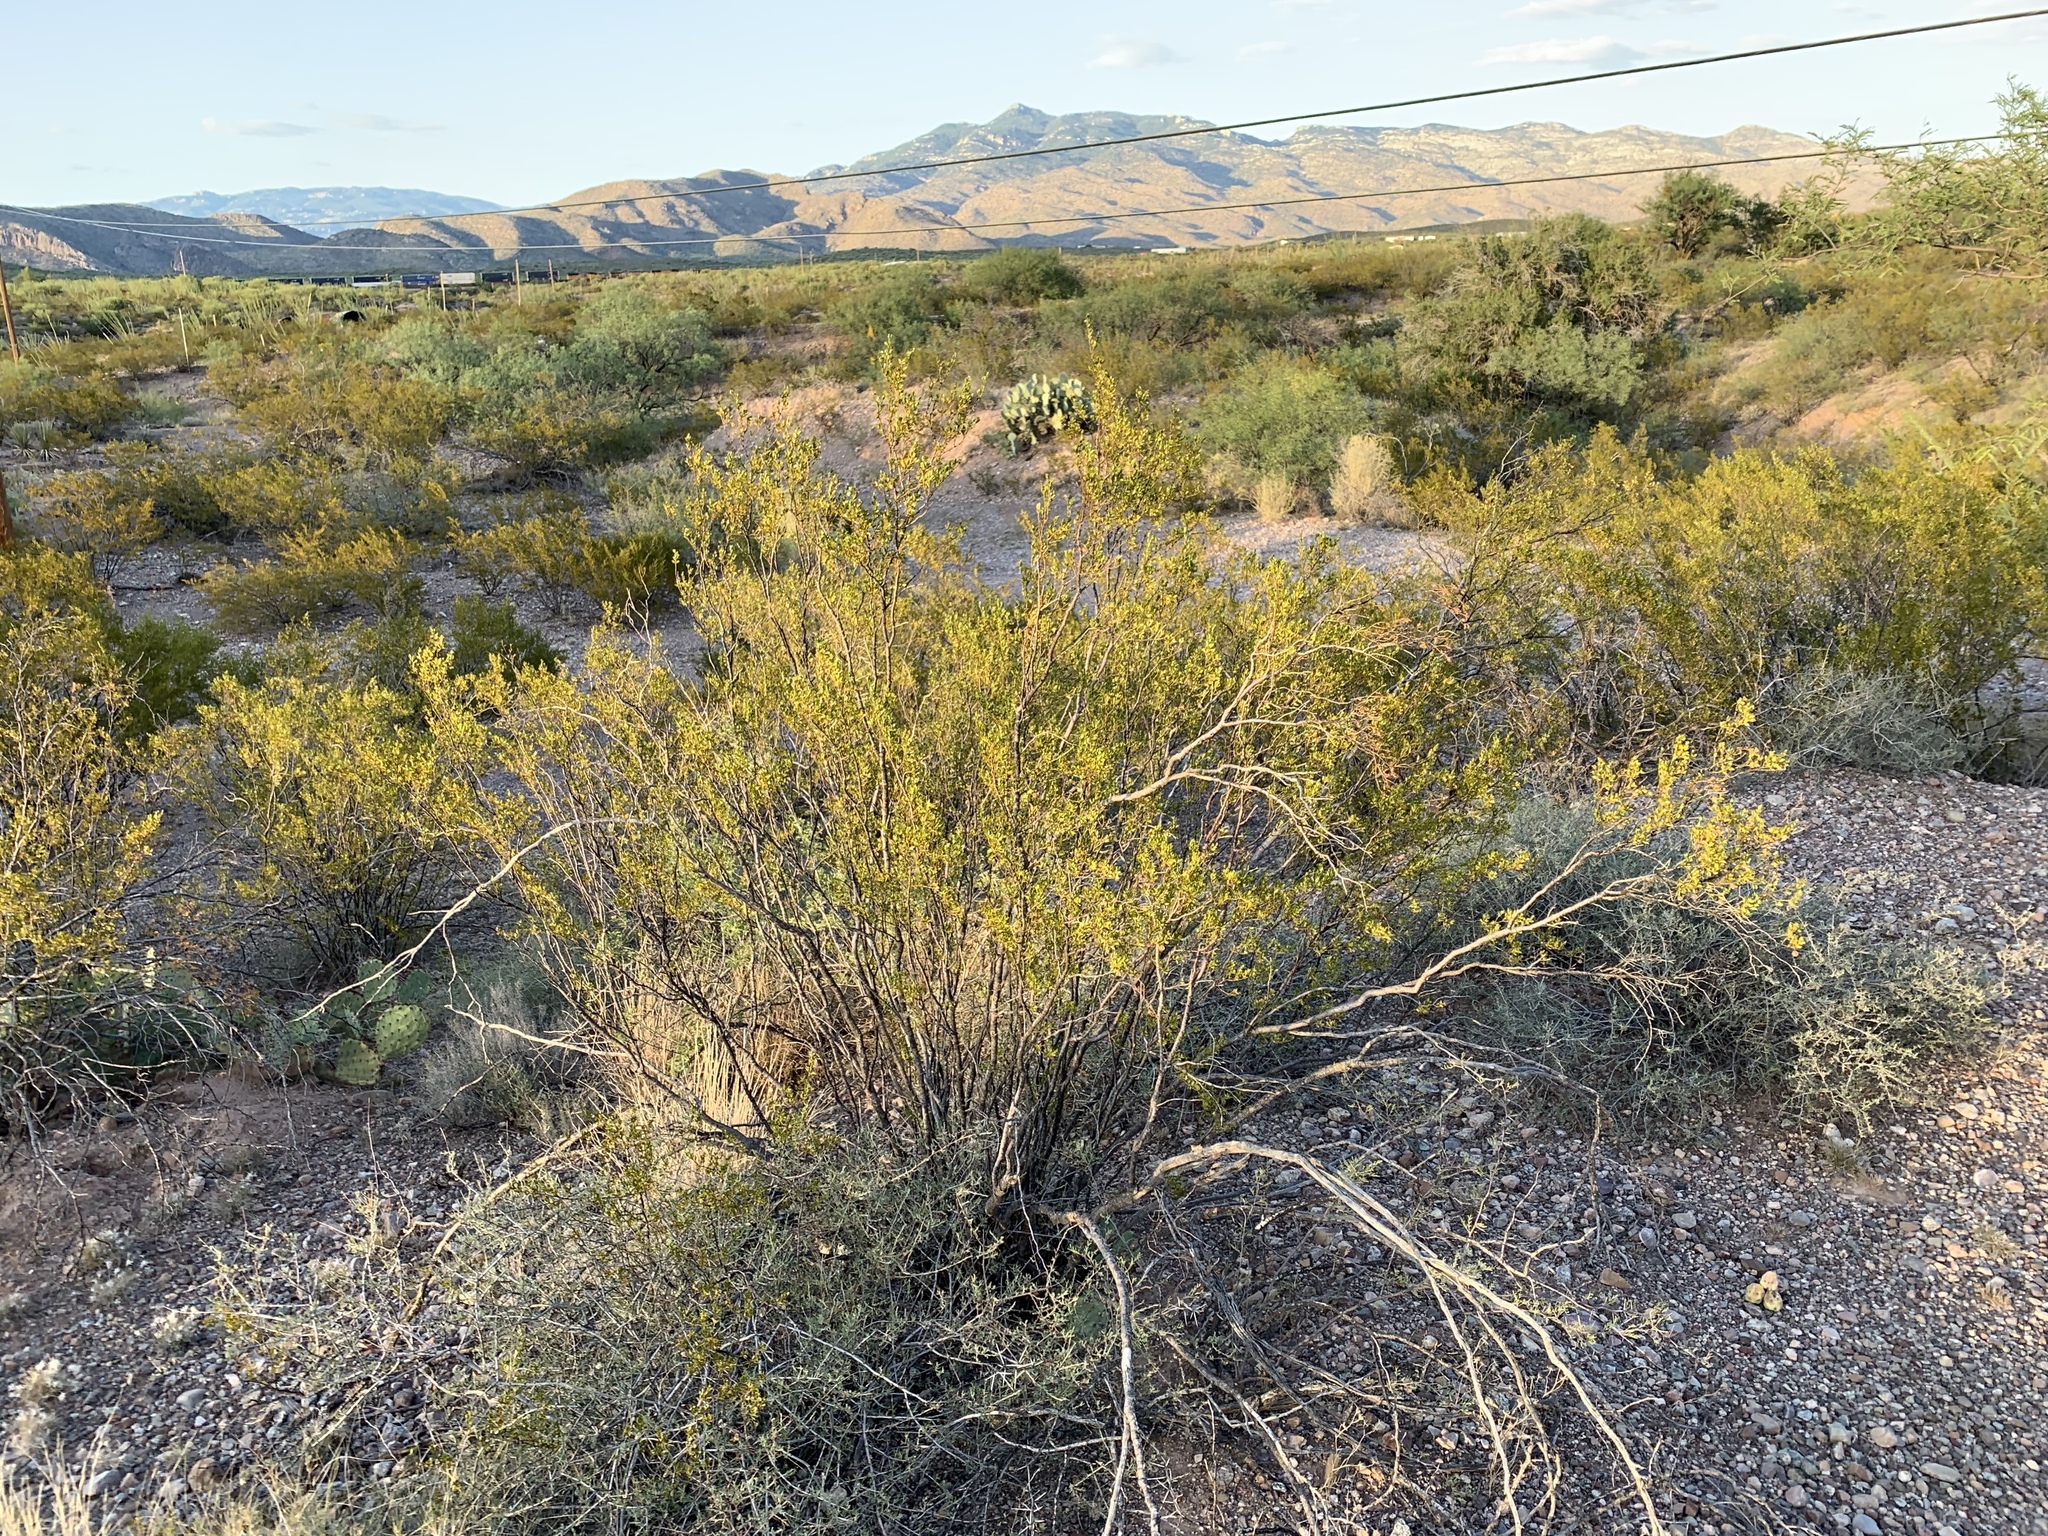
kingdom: Plantae
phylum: Tracheophyta
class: Magnoliopsida
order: Zygophyllales
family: Zygophyllaceae
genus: Larrea
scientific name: Larrea tridentata
